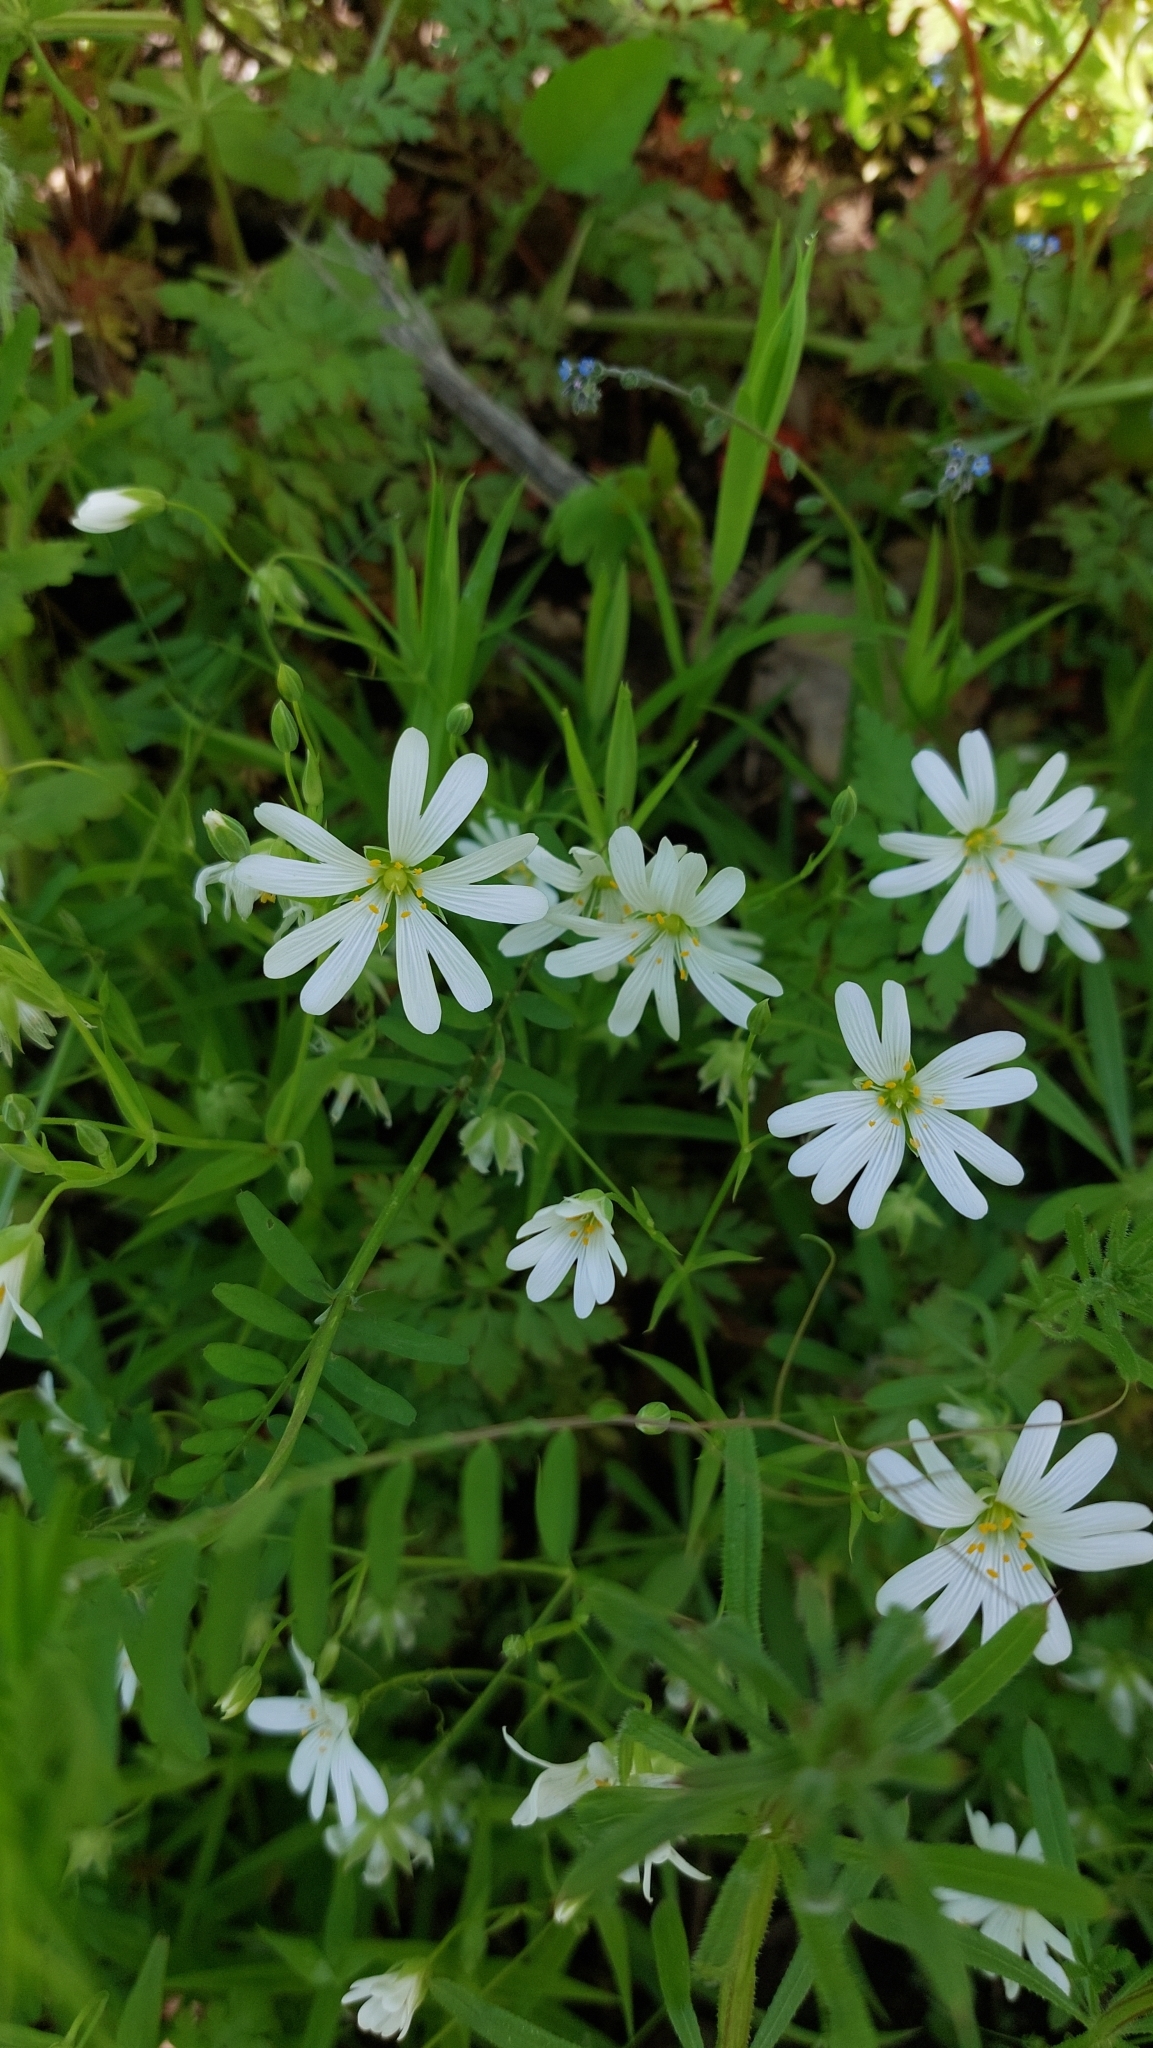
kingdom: Plantae
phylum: Tracheophyta
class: Magnoliopsida
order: Caryophyllales
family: Caryophyllaceae
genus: Rabelera
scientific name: Rabelera holostea
